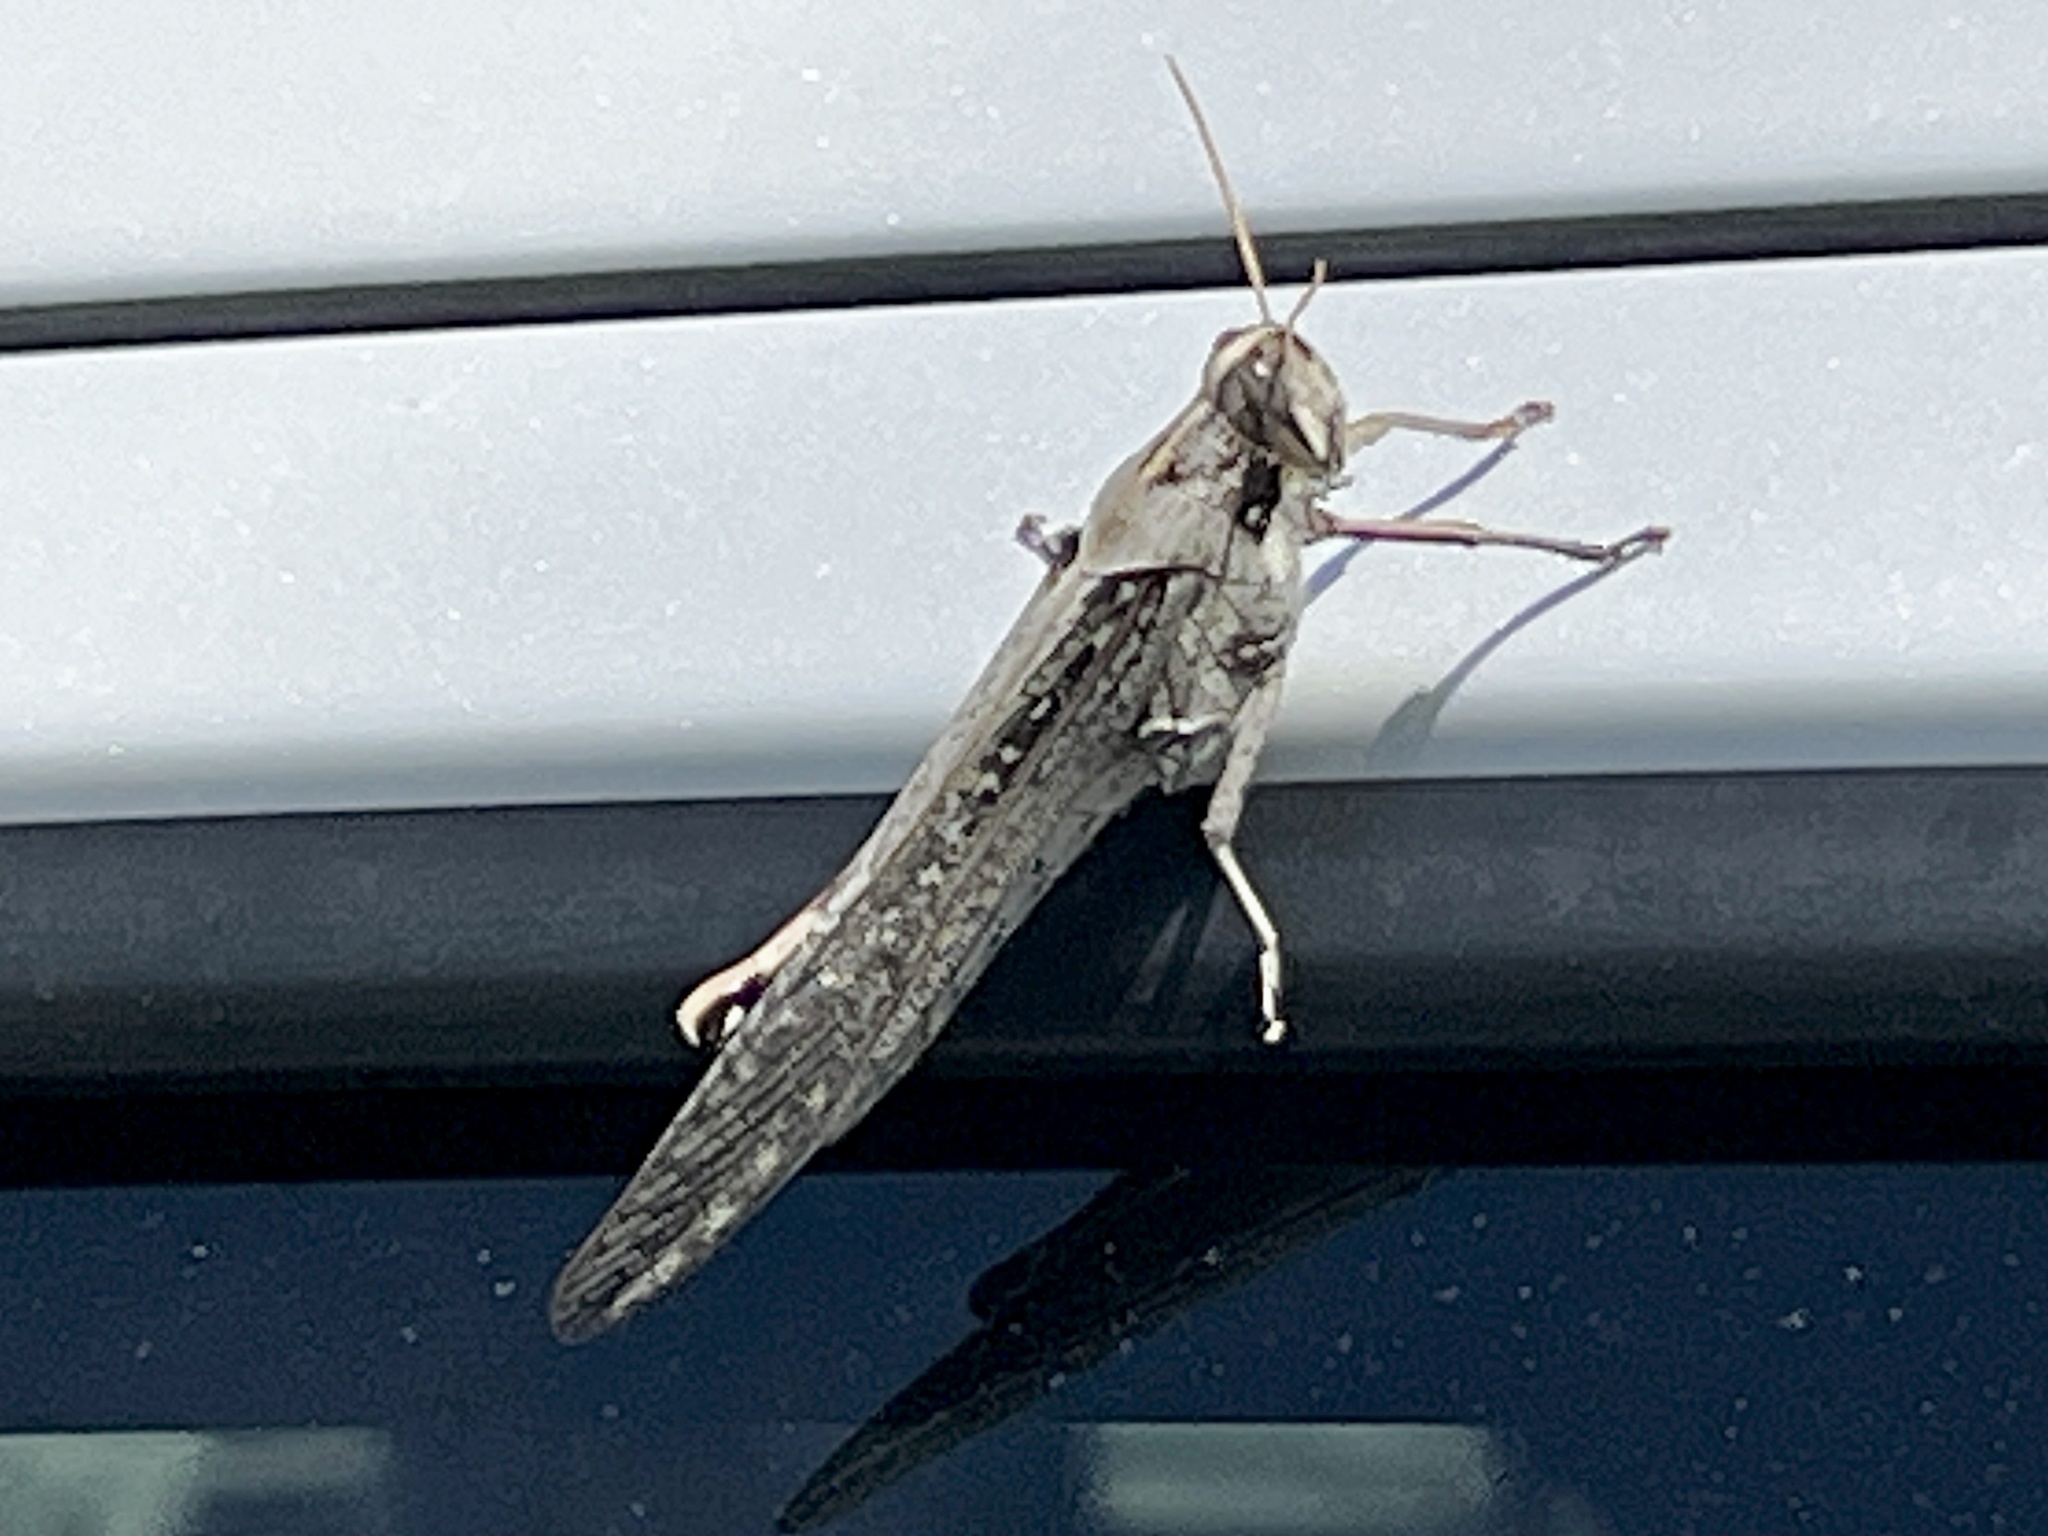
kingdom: Animalia
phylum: Arthropoda
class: Insecta
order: Orthoptera
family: Acrididae
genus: Schistocerca
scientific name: Schistocerca nitens
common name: Vagrant grasshopper
